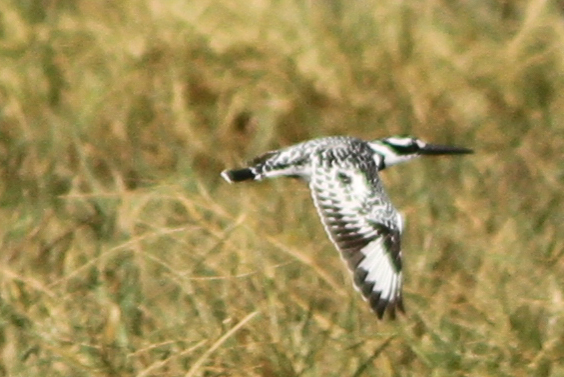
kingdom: Animalia
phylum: Chordata
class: Aves
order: Coraciiformes
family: Alcedinidae
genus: Ceryle
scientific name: Ceryle rudis
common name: Pied kingfisher
